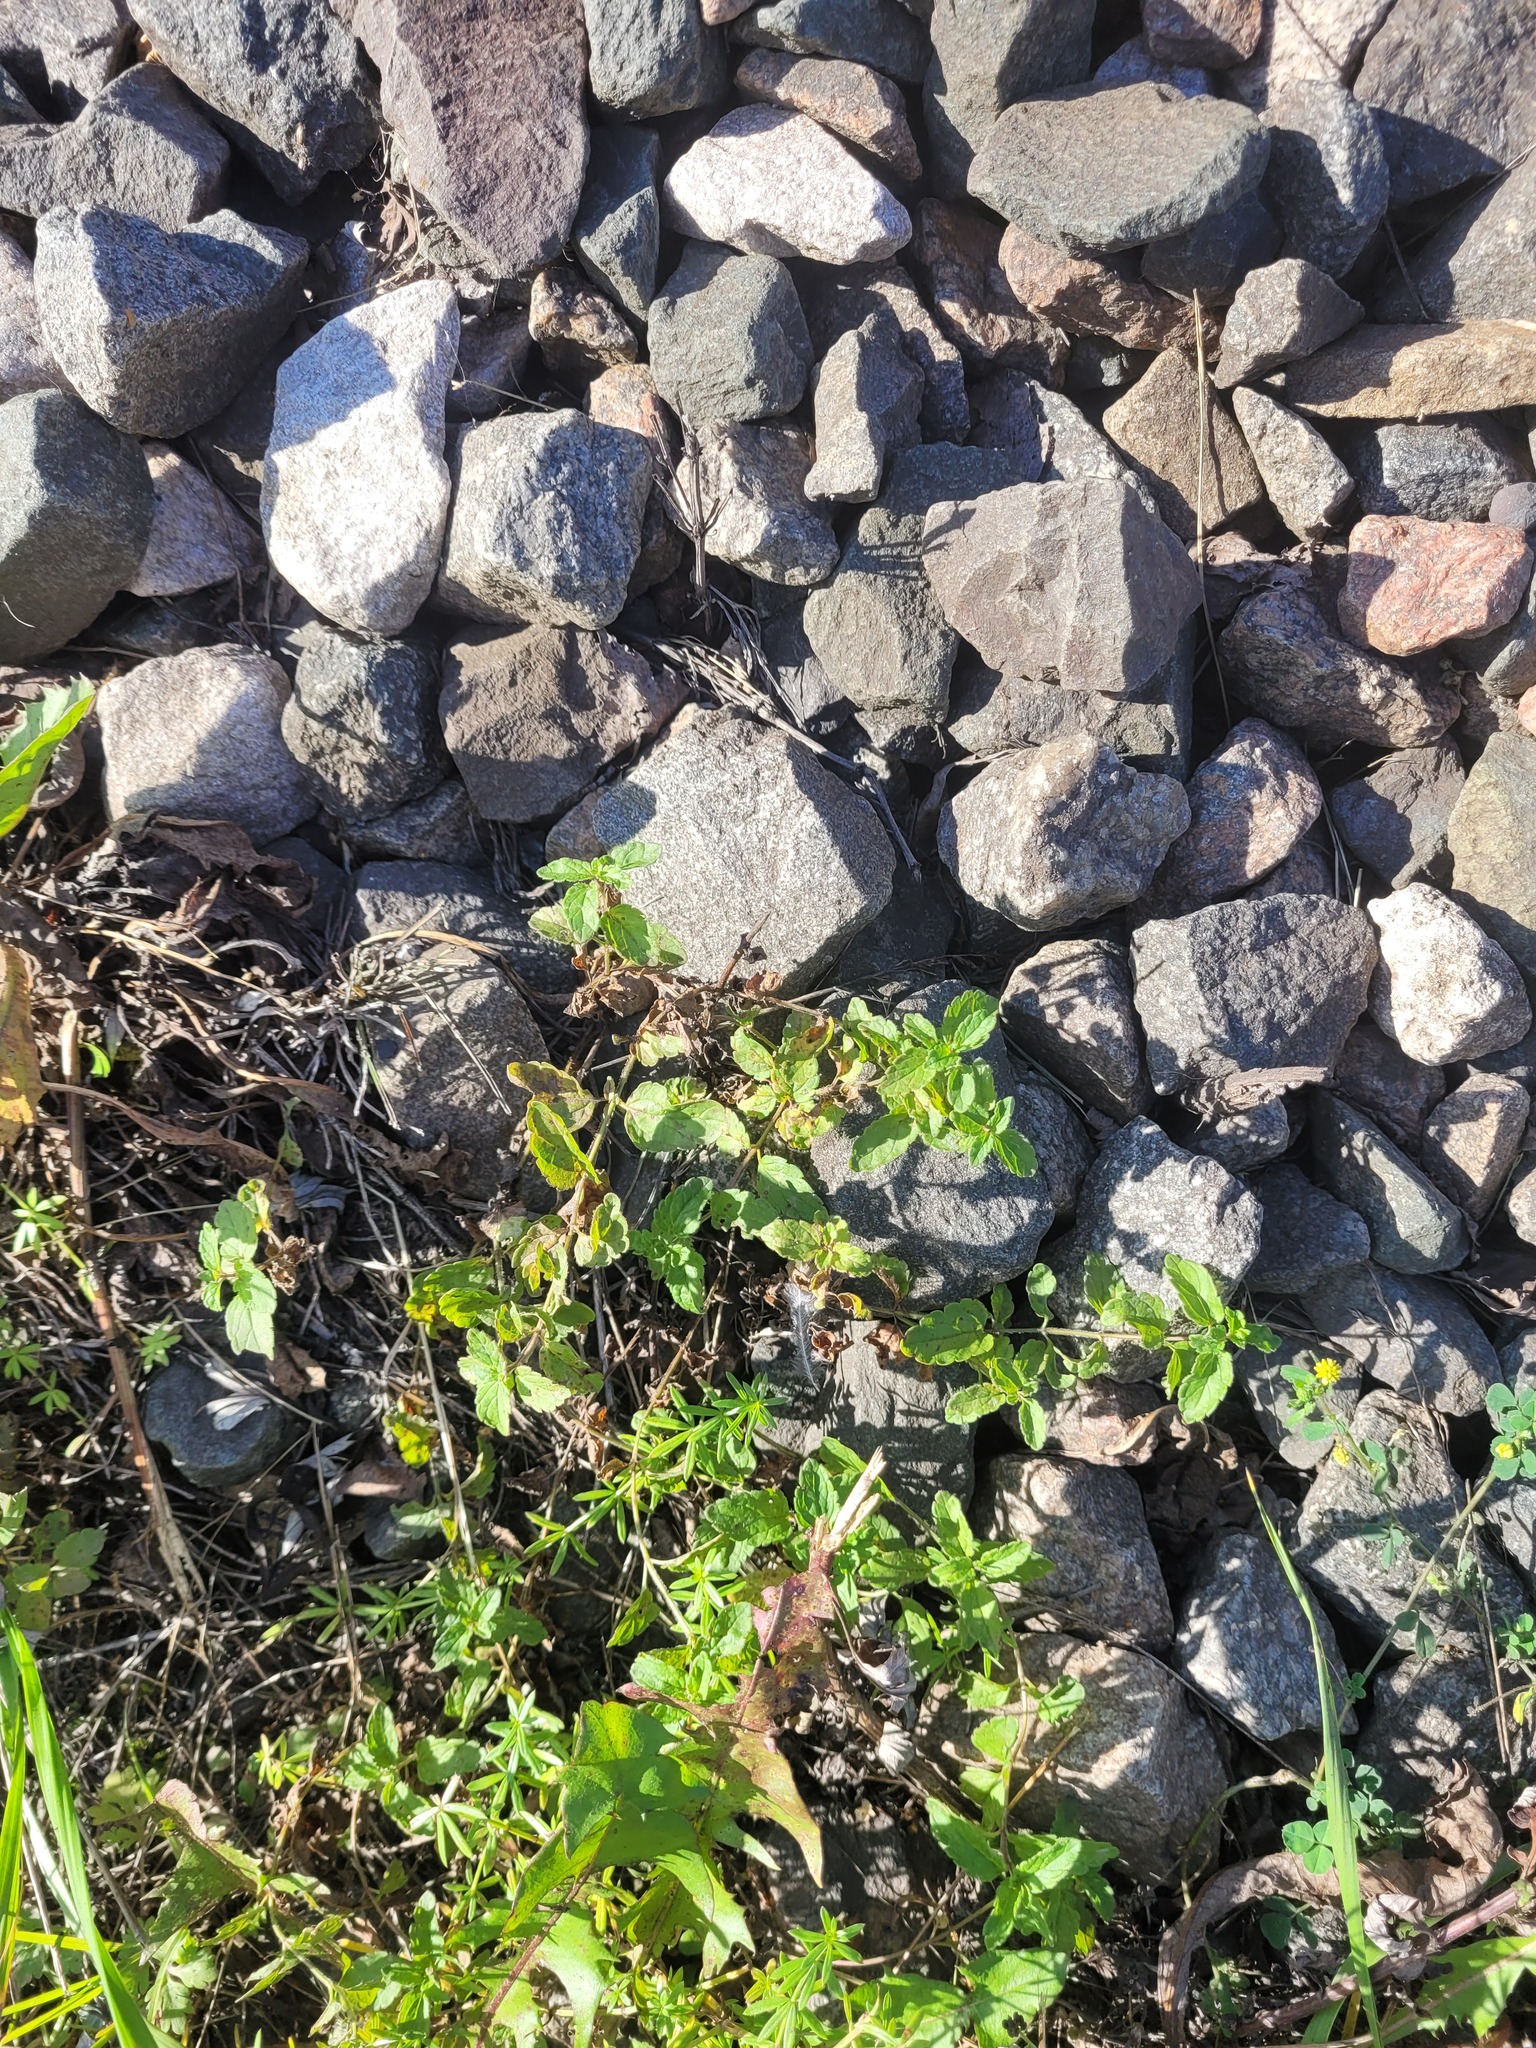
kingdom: Plantae
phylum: Tracheophyta
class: Magnoliopsida
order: Lamiales
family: Plantaginaceae
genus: Veronica
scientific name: Veronica chamaedrys
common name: Germander speedwell
